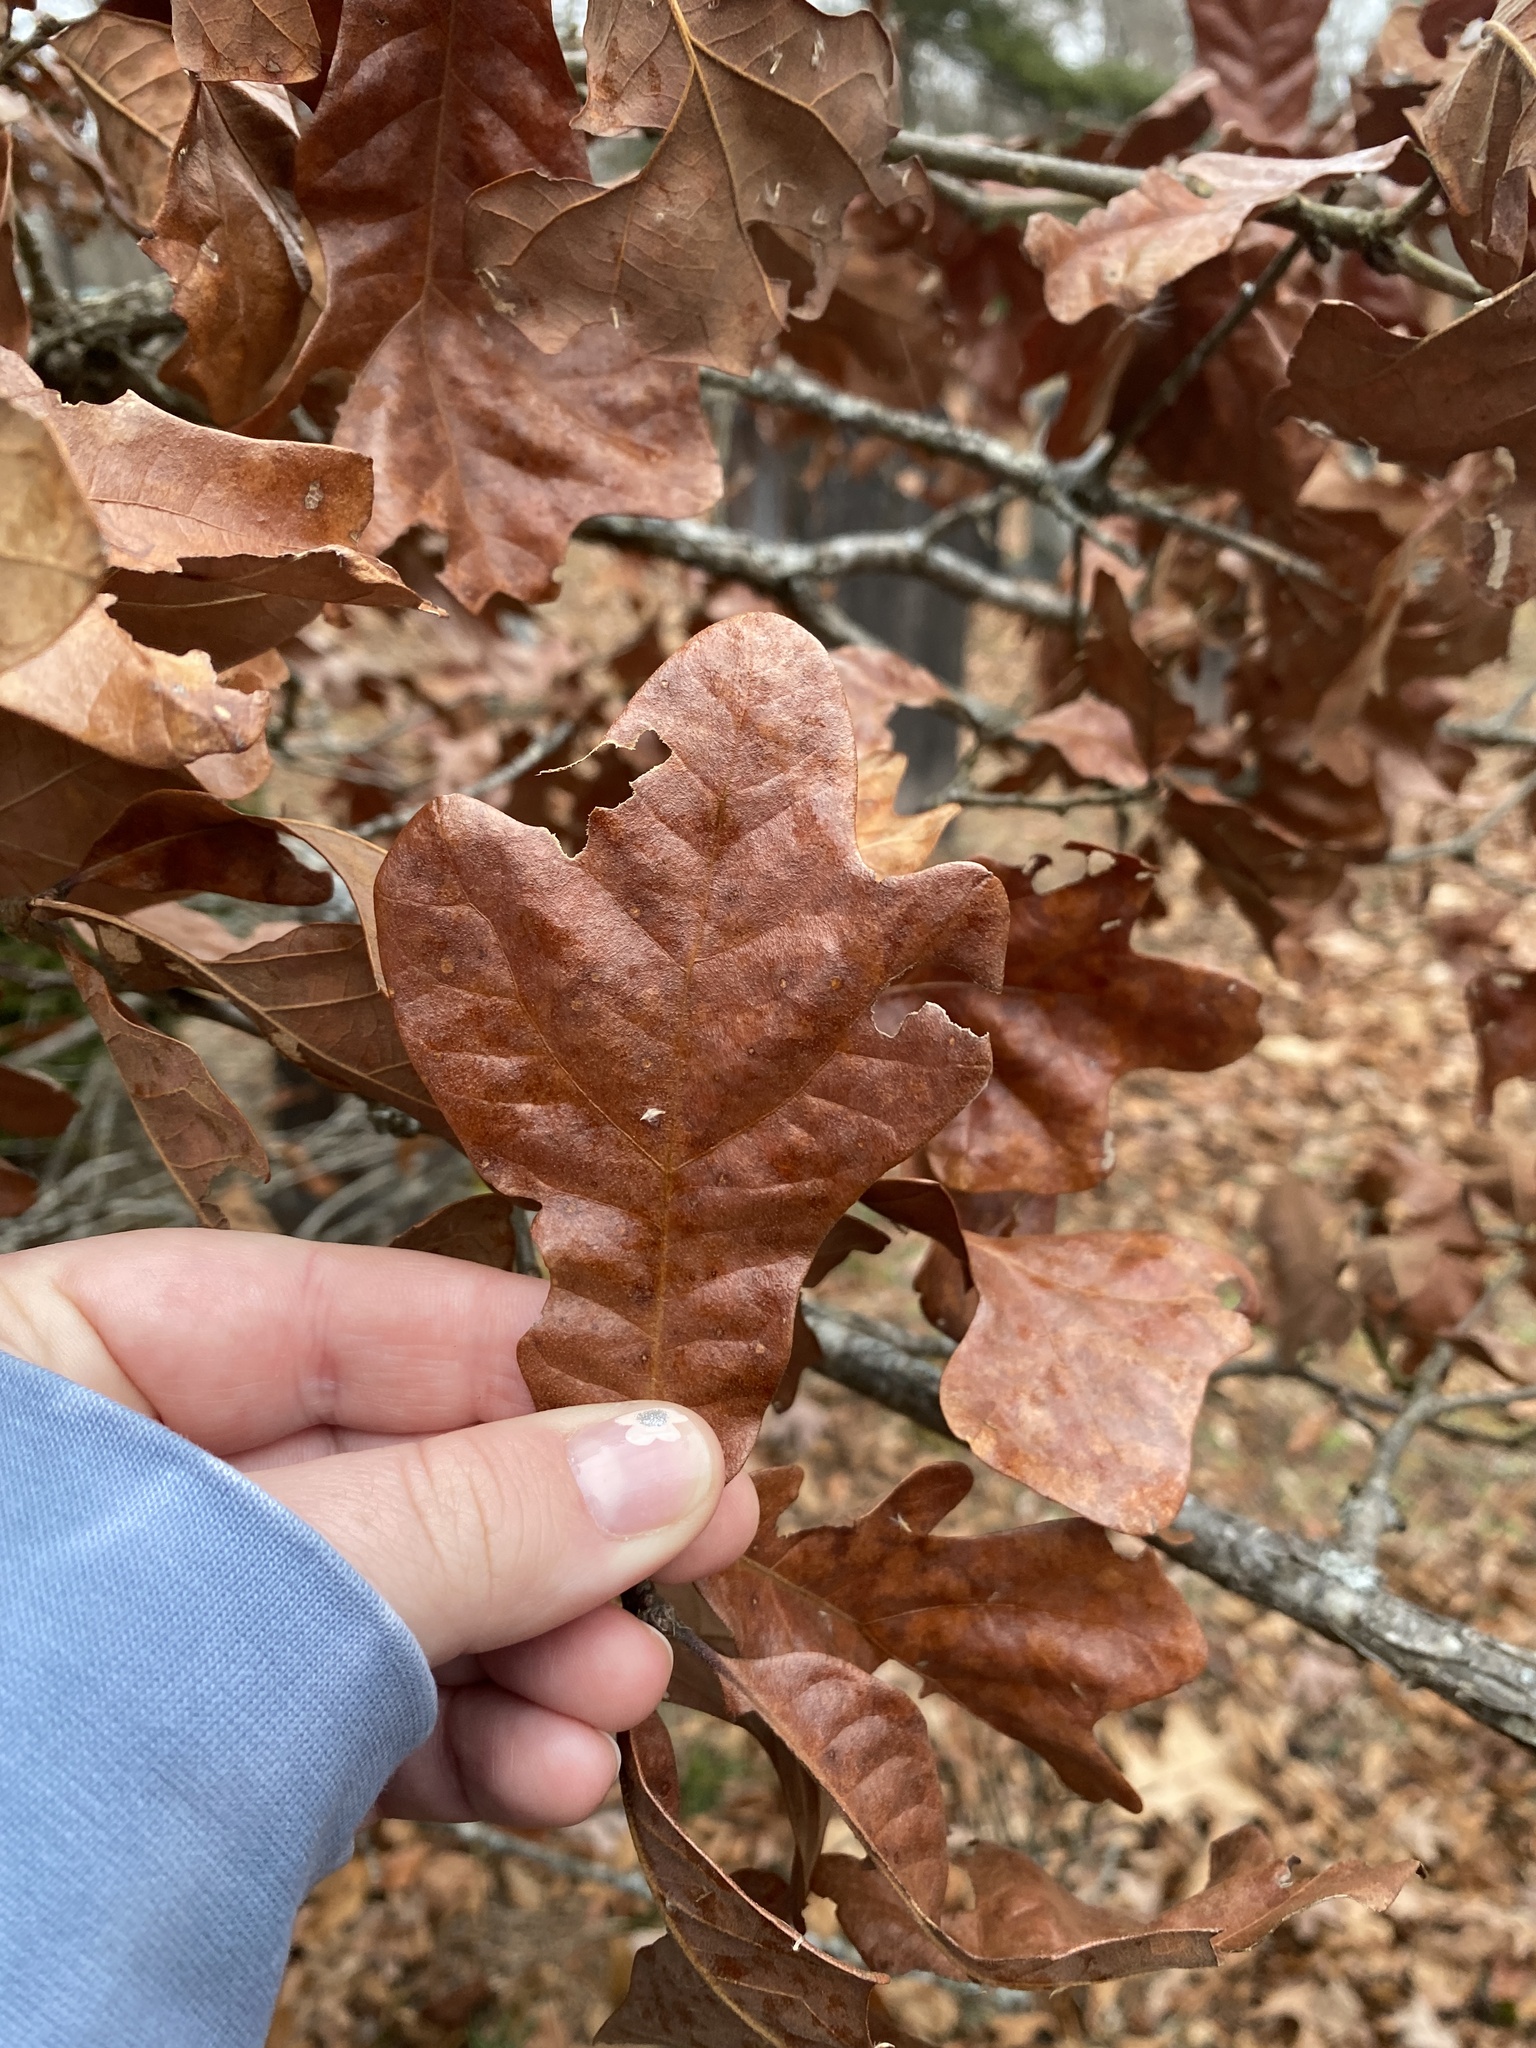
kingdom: Plantae
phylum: Tracheophyta
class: Magnoliopsida
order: Fagales
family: Fagaceae
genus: Quercus
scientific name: Quercus stellata
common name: Post oak
